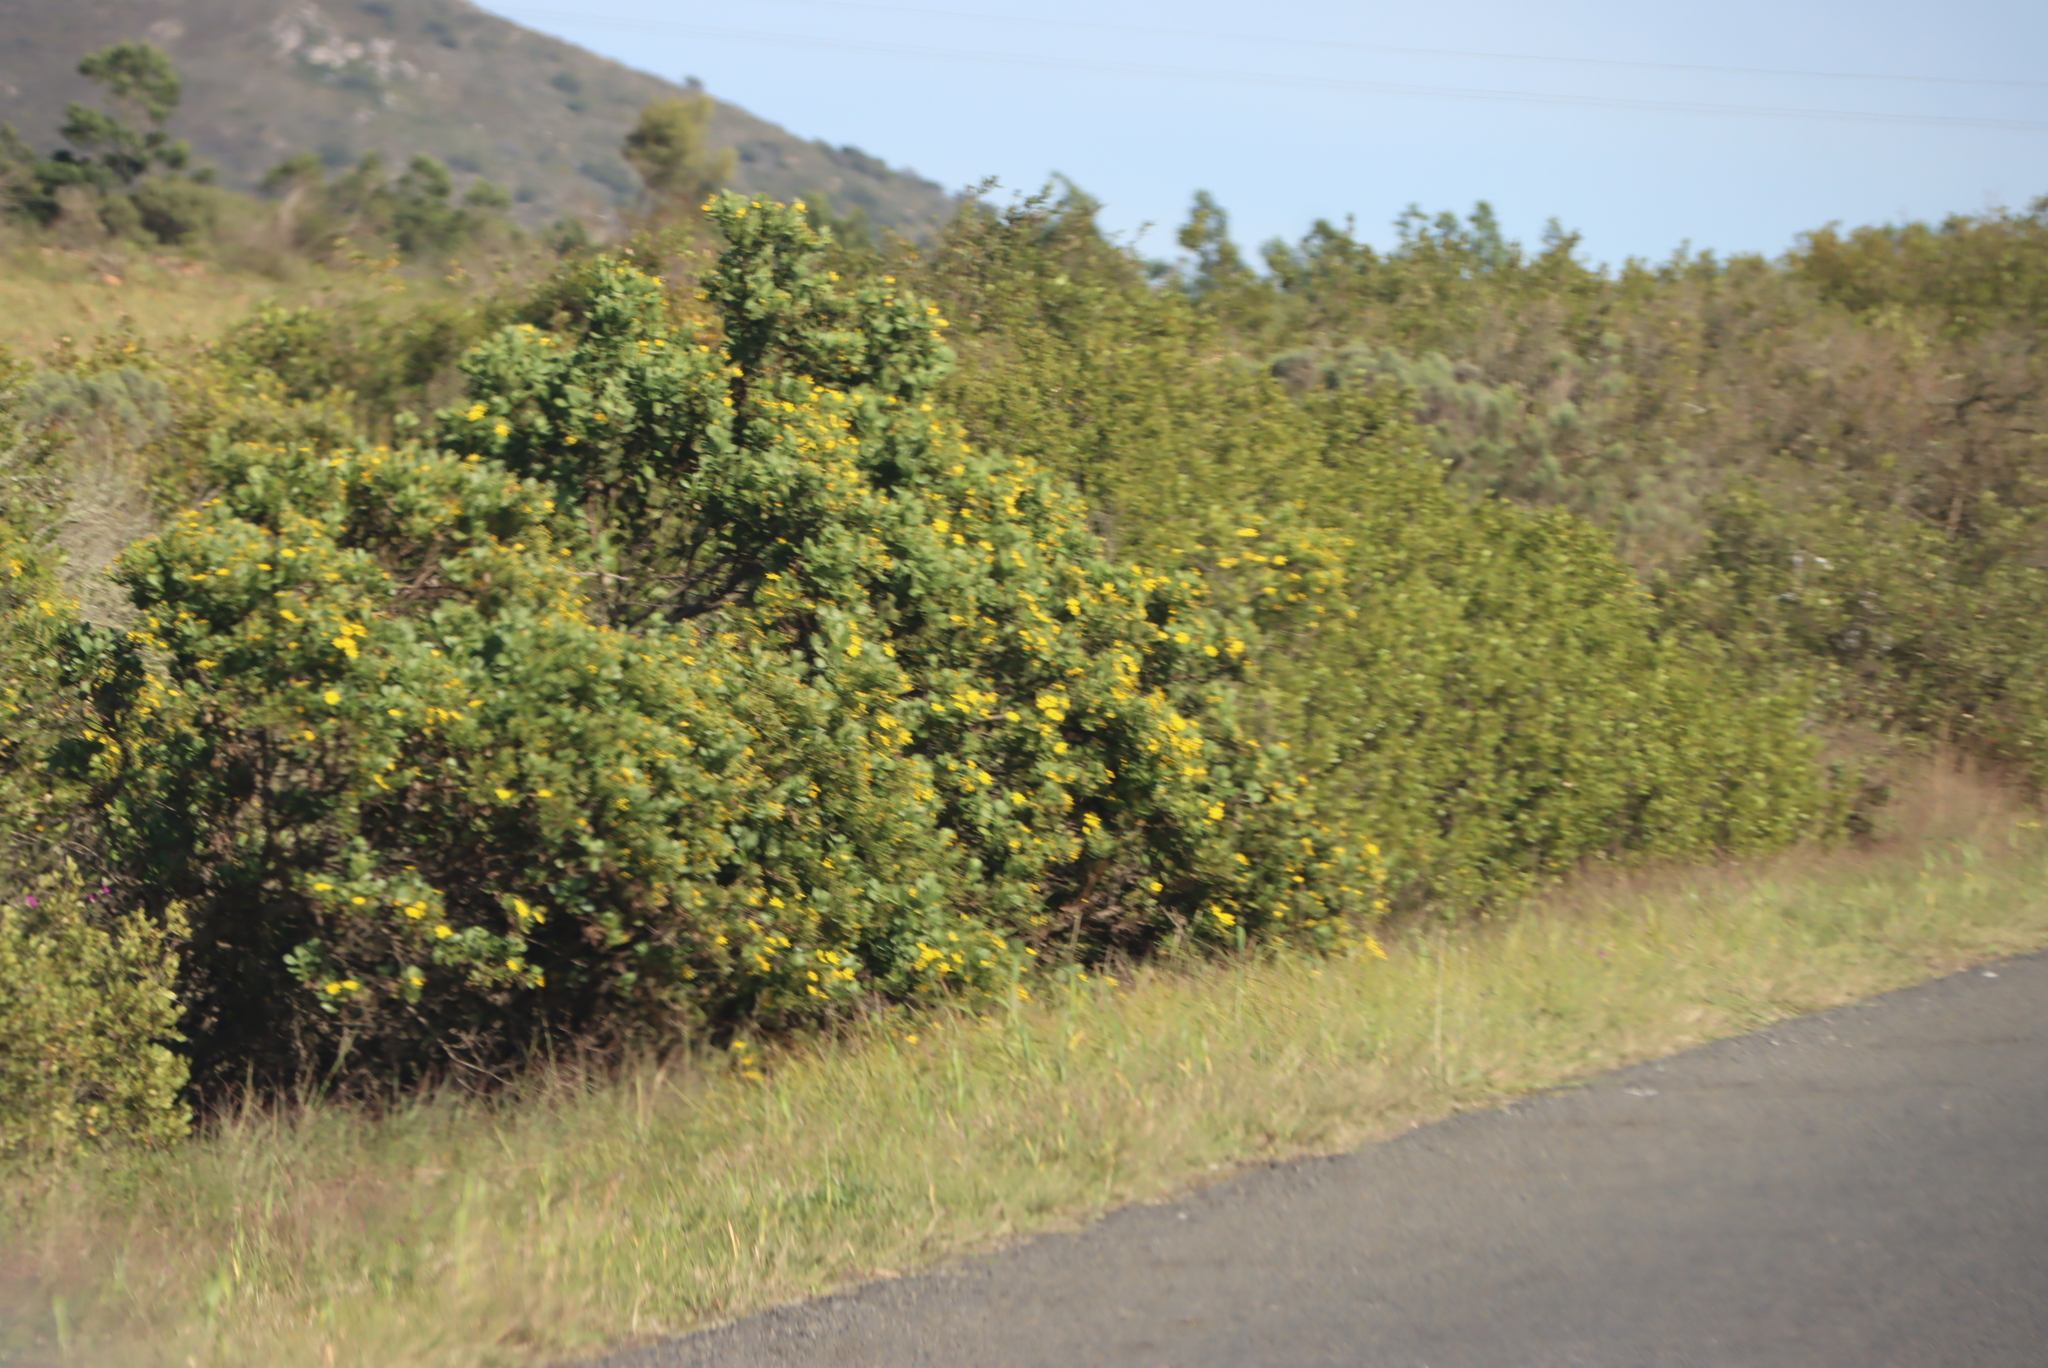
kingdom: Plantae
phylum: Tracheophyta
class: Magnoliopsida
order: Asterales
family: Asteraceae
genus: Osteospermum
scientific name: Osteospermum moniliferum
